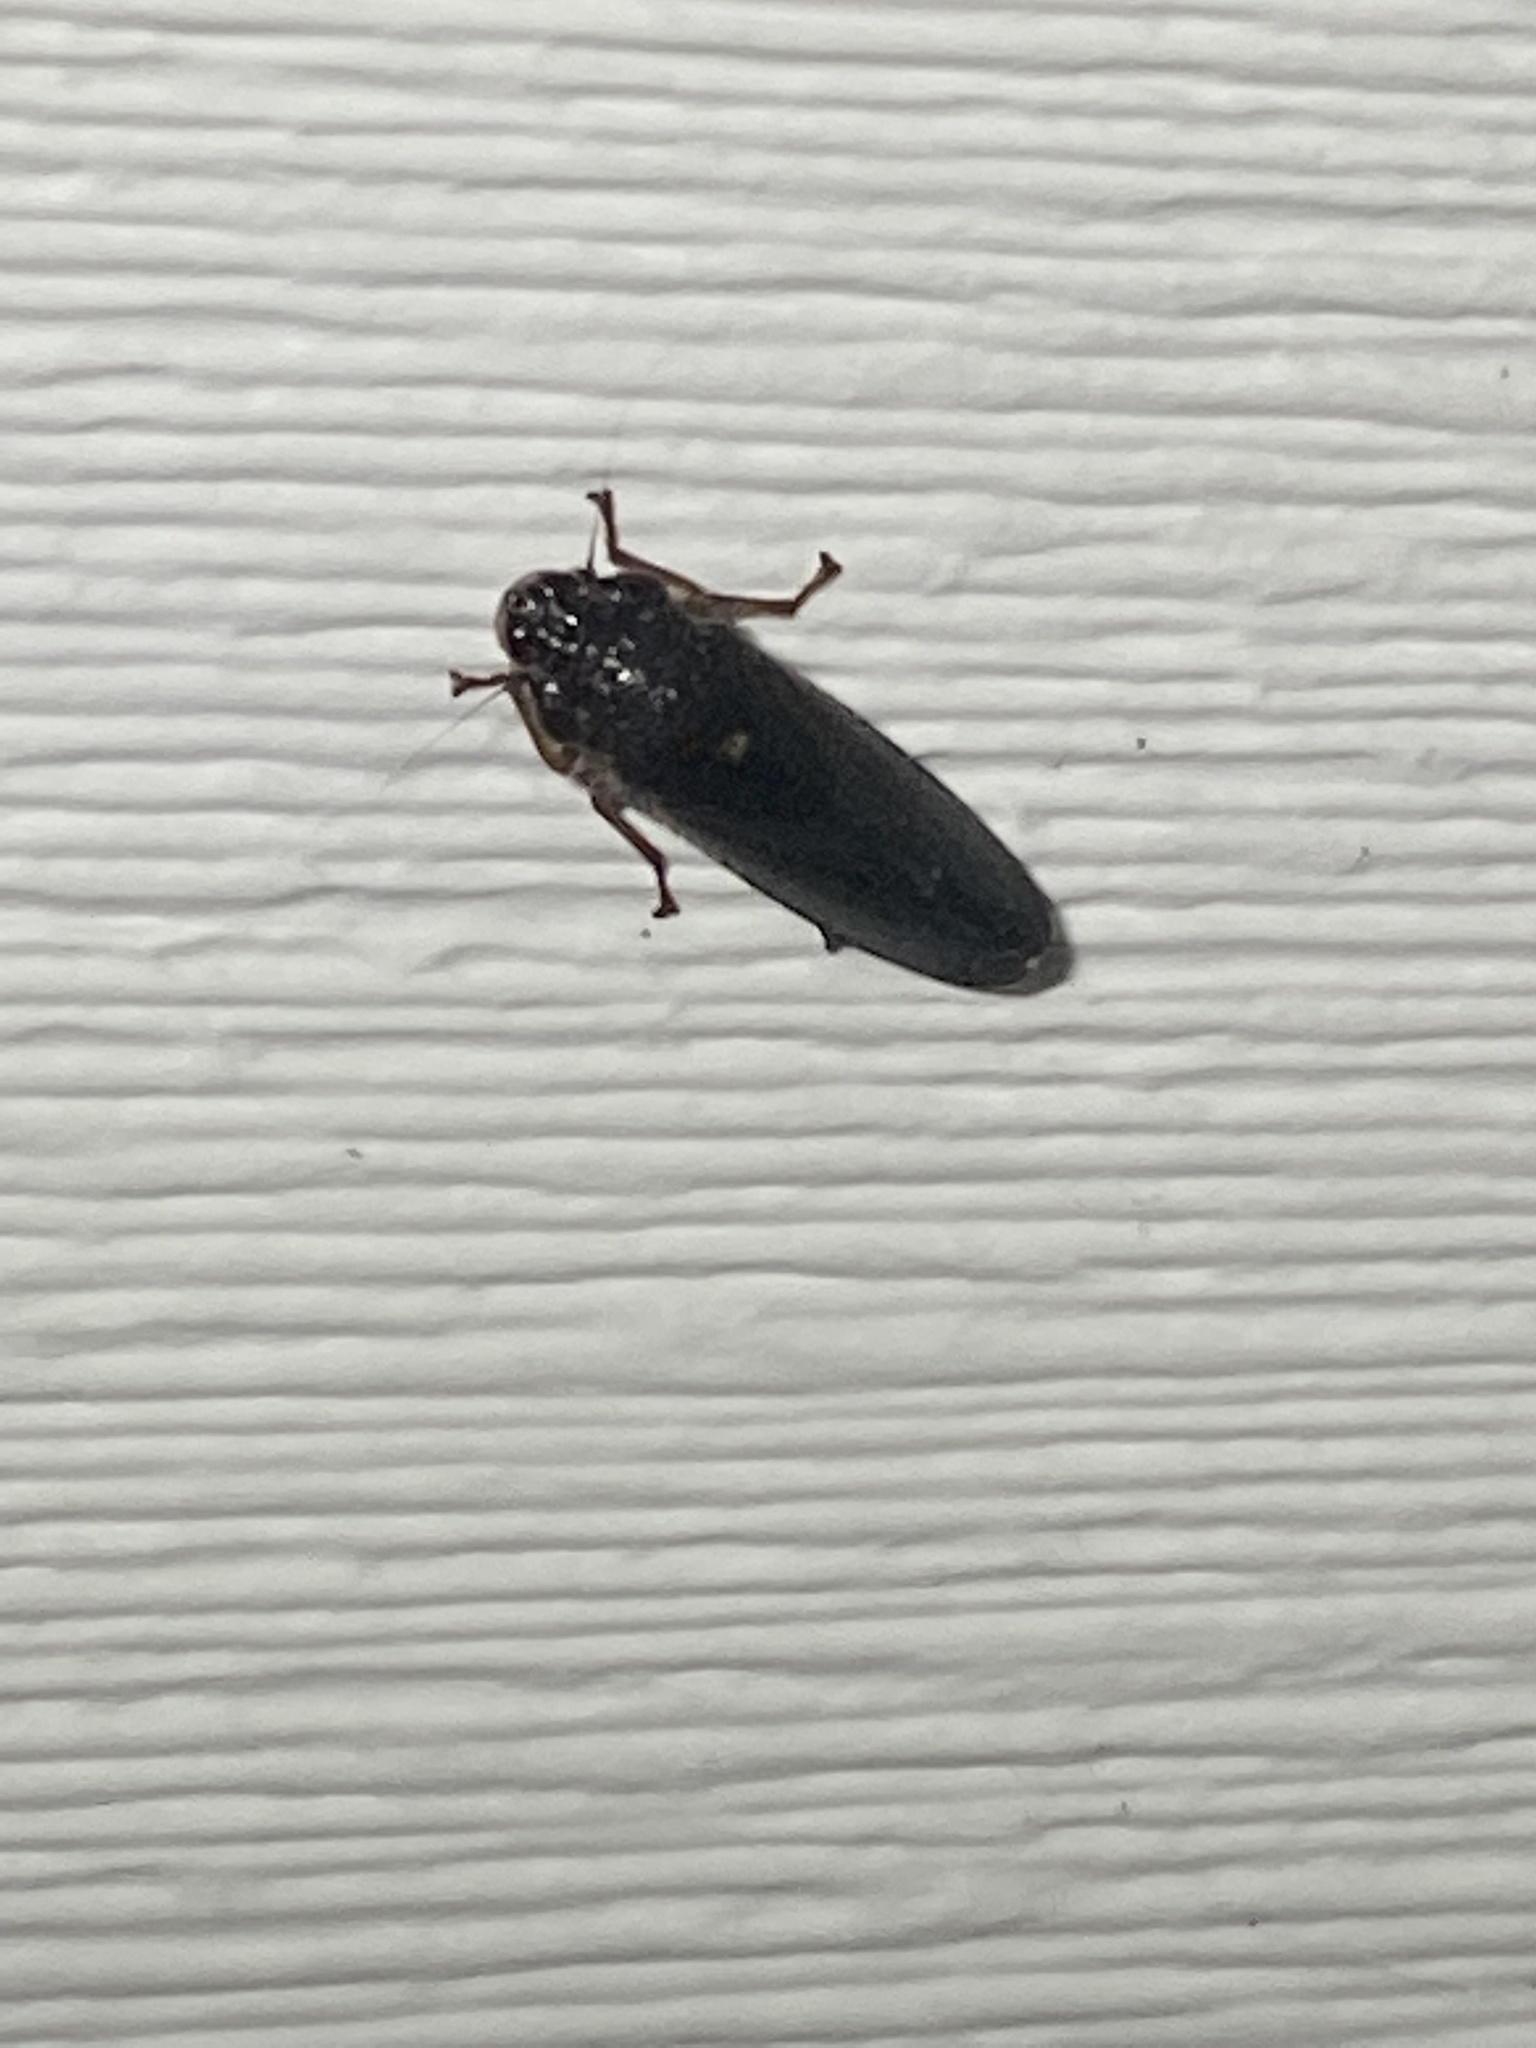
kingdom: Animalia
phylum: Arthropoda
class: Insecta
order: Hemiptera
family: Cicadellidae
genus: Paraulacizes
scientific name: Paraulacizes irrorata
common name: Speckled sharpshooter
